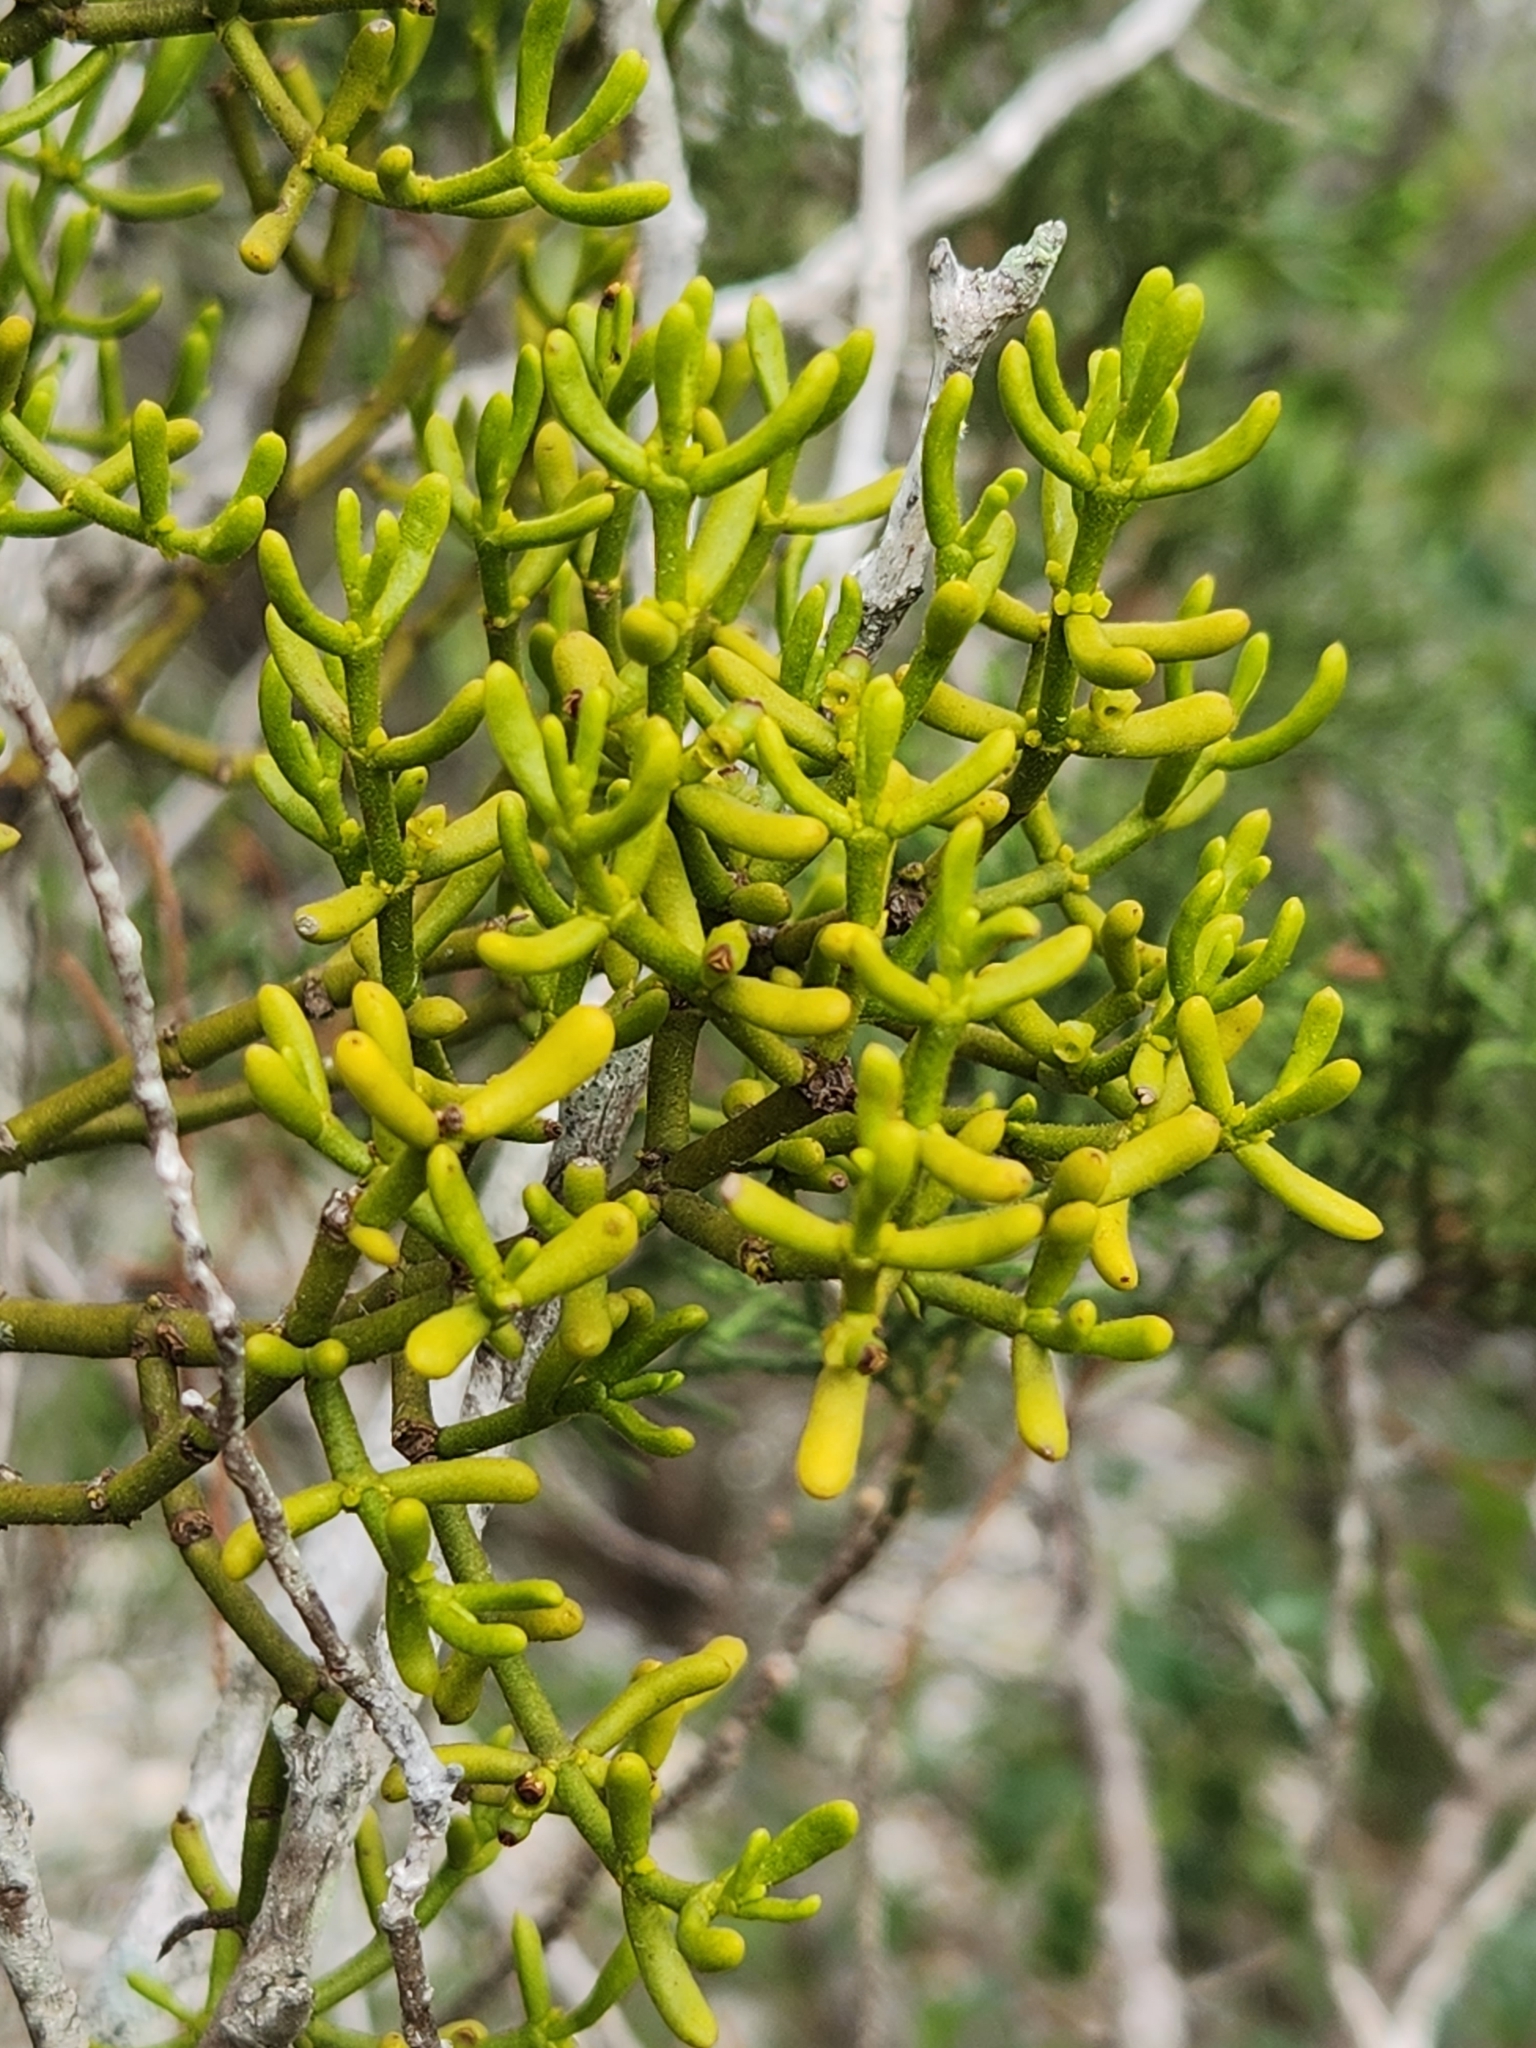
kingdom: Plantae
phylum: Tracheophyta
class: Magnoliopsida
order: Santalales
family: Viscaceae
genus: Phoradendron
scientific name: Phoradendron leucarpum
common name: Pacific mistletoe
